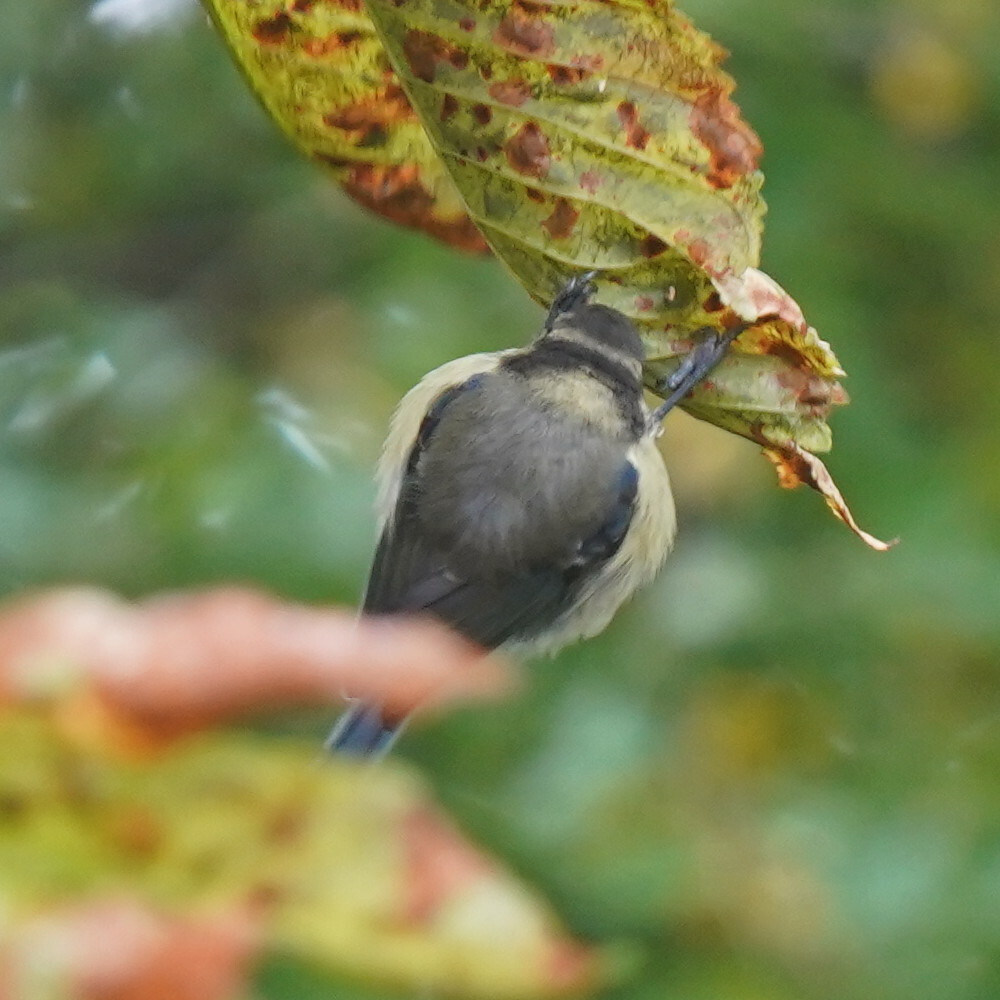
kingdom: Animalia
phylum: Chordata
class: Aves
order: Passeriformes
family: Paridae
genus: Cyanistes
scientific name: Cyanistes caeruleus
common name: Eurasian blue tit
